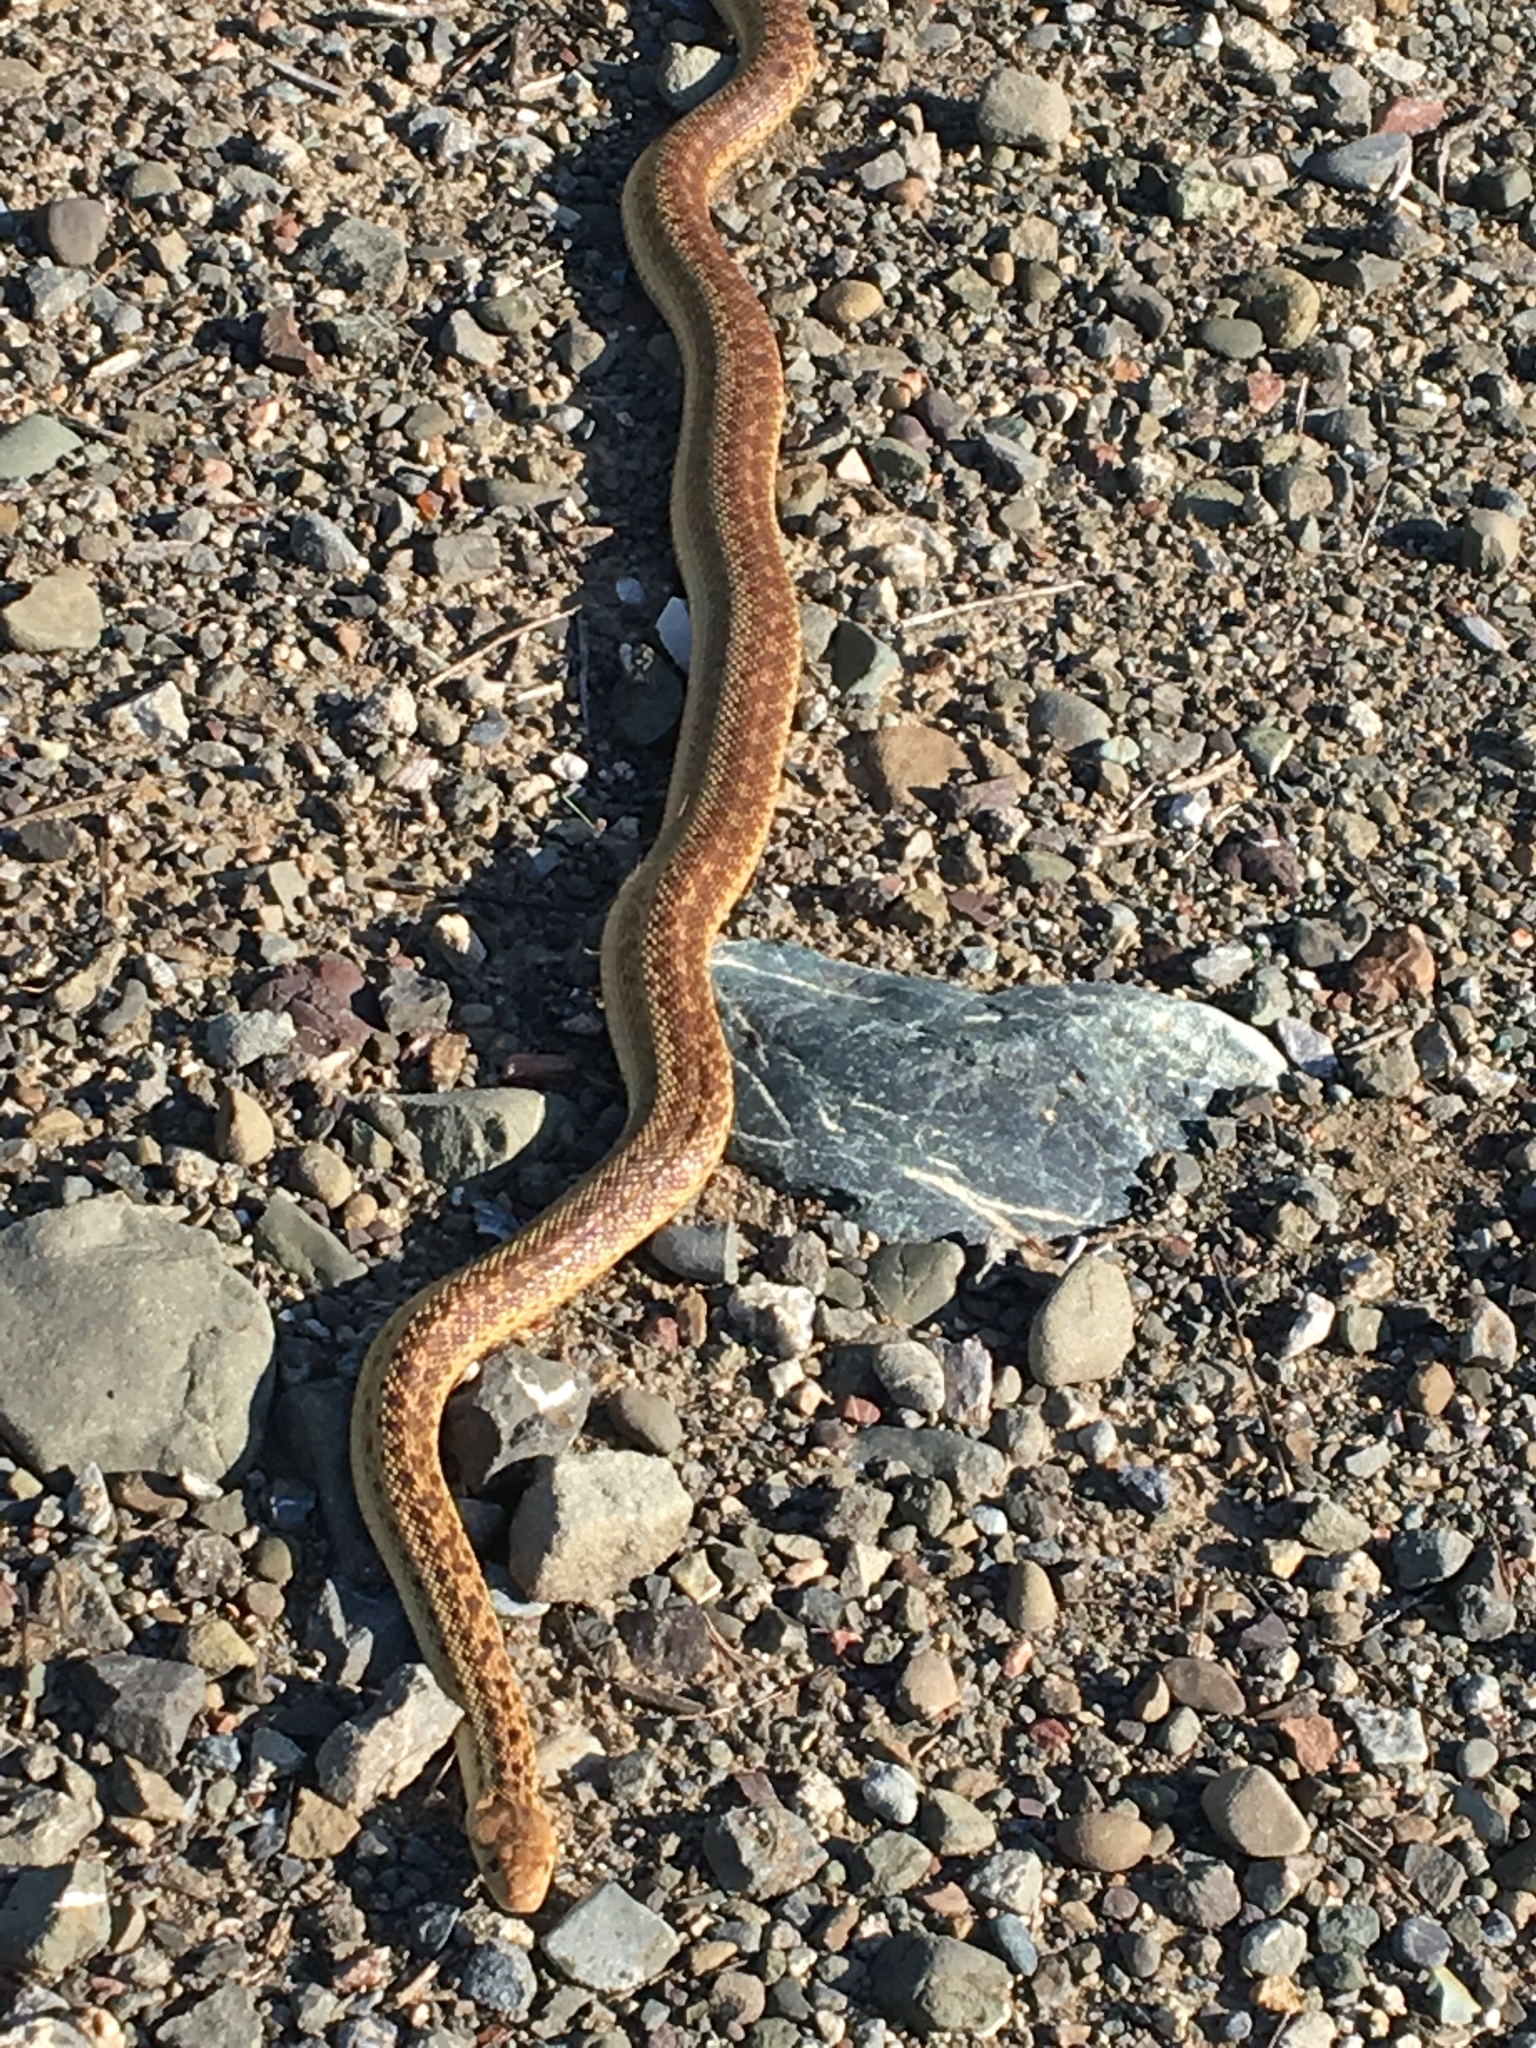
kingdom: Animalia
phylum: Chordata
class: Squamata
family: Colubridae
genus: Pituophis
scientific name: Pituophis catenifer
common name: Gopher snake
